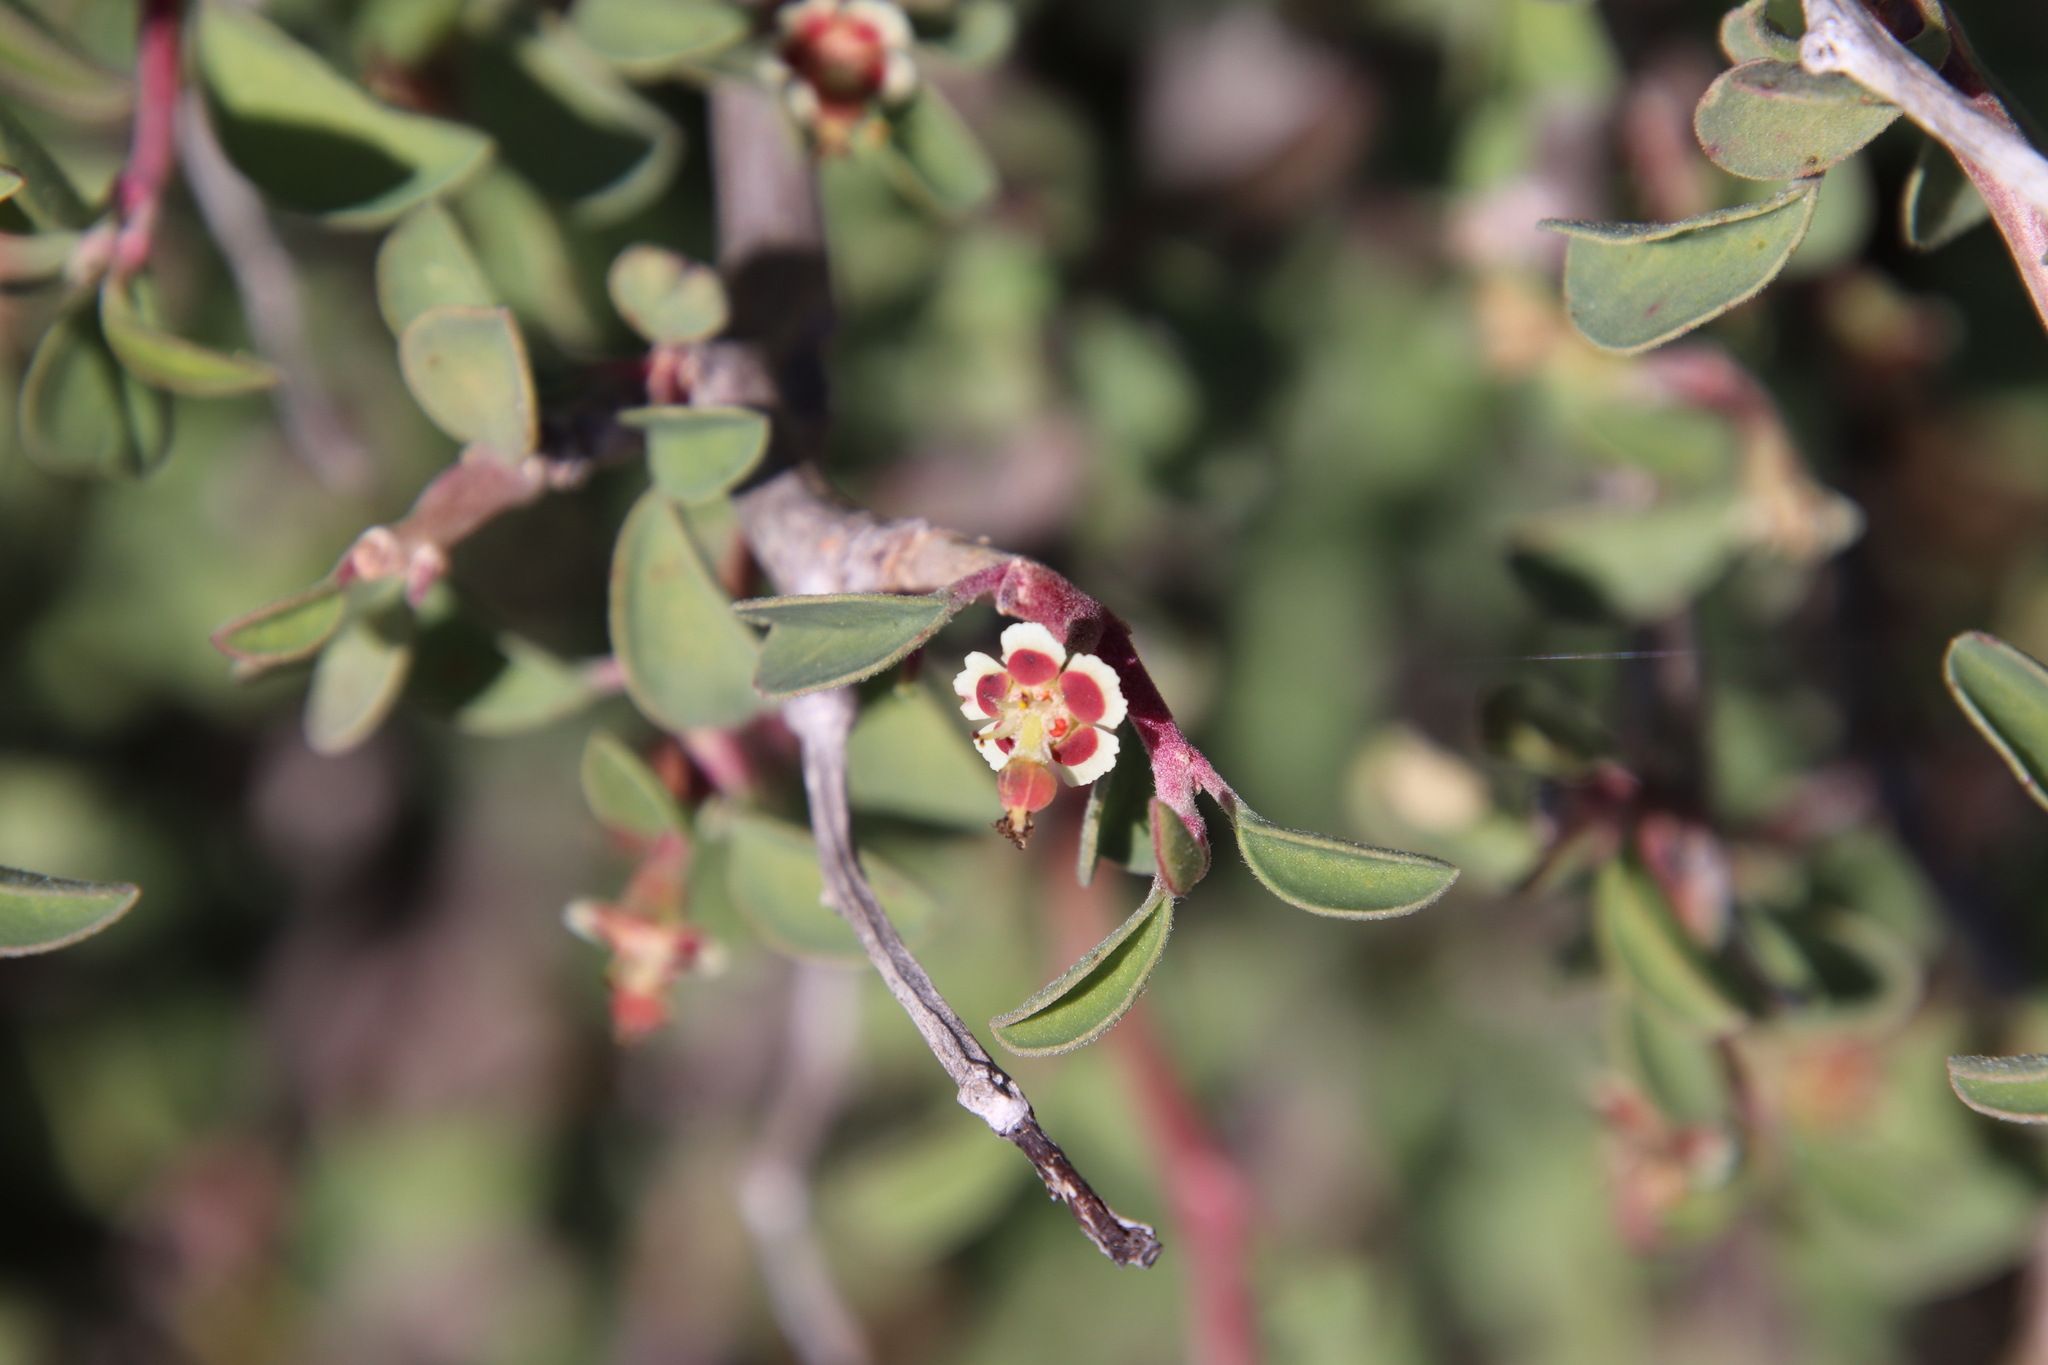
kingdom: Plantae
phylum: Tracheophyta
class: Magnoliopsida
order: Malpighiales
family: Euphorbiaceae
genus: Euphorbia
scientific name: Euphorbia misera
